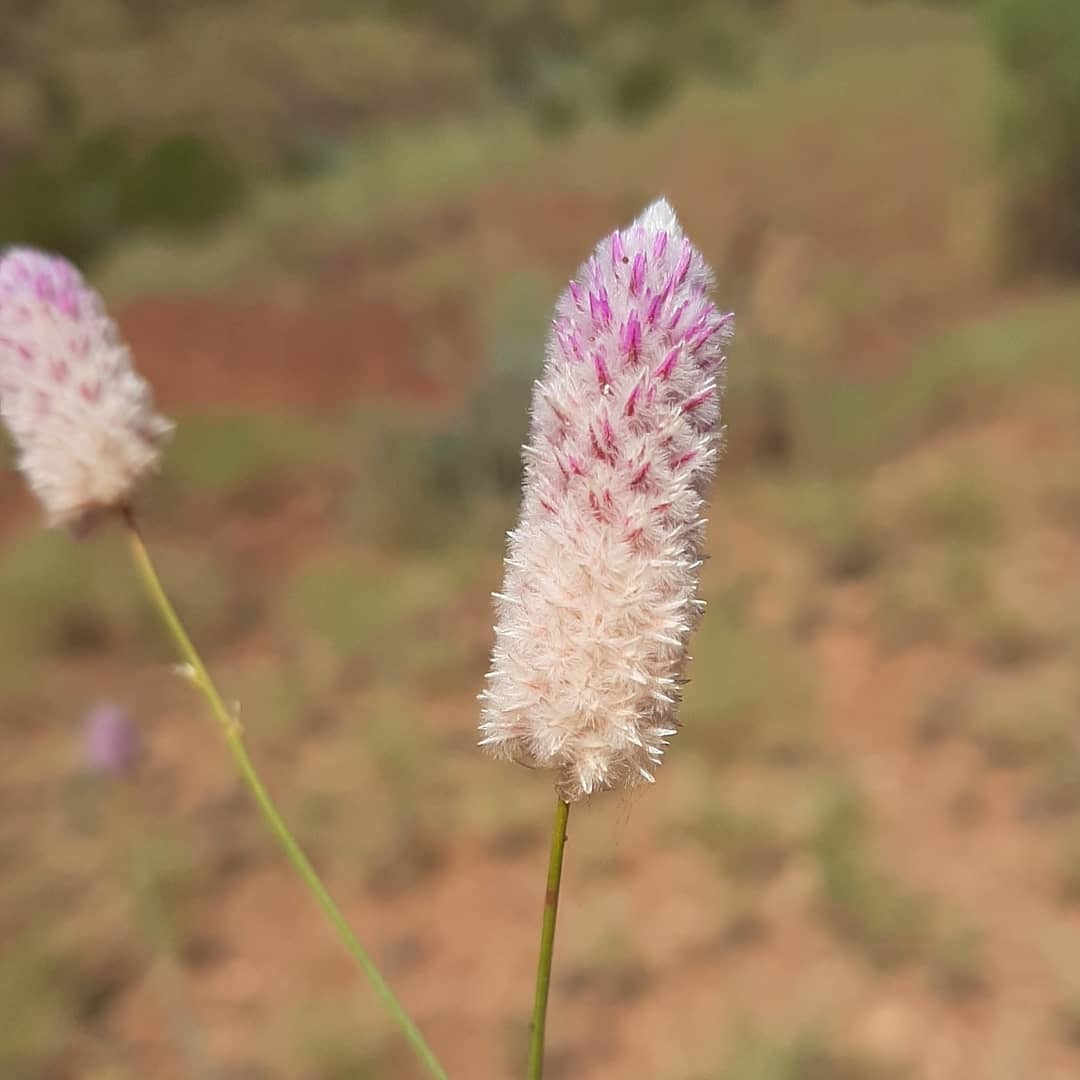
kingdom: Plantae
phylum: Tracheophyta
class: Magnoliopsida
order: Caryophyllales
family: Amaranthaceae
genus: Ptilotus
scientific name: Ptilotus calostachyus
